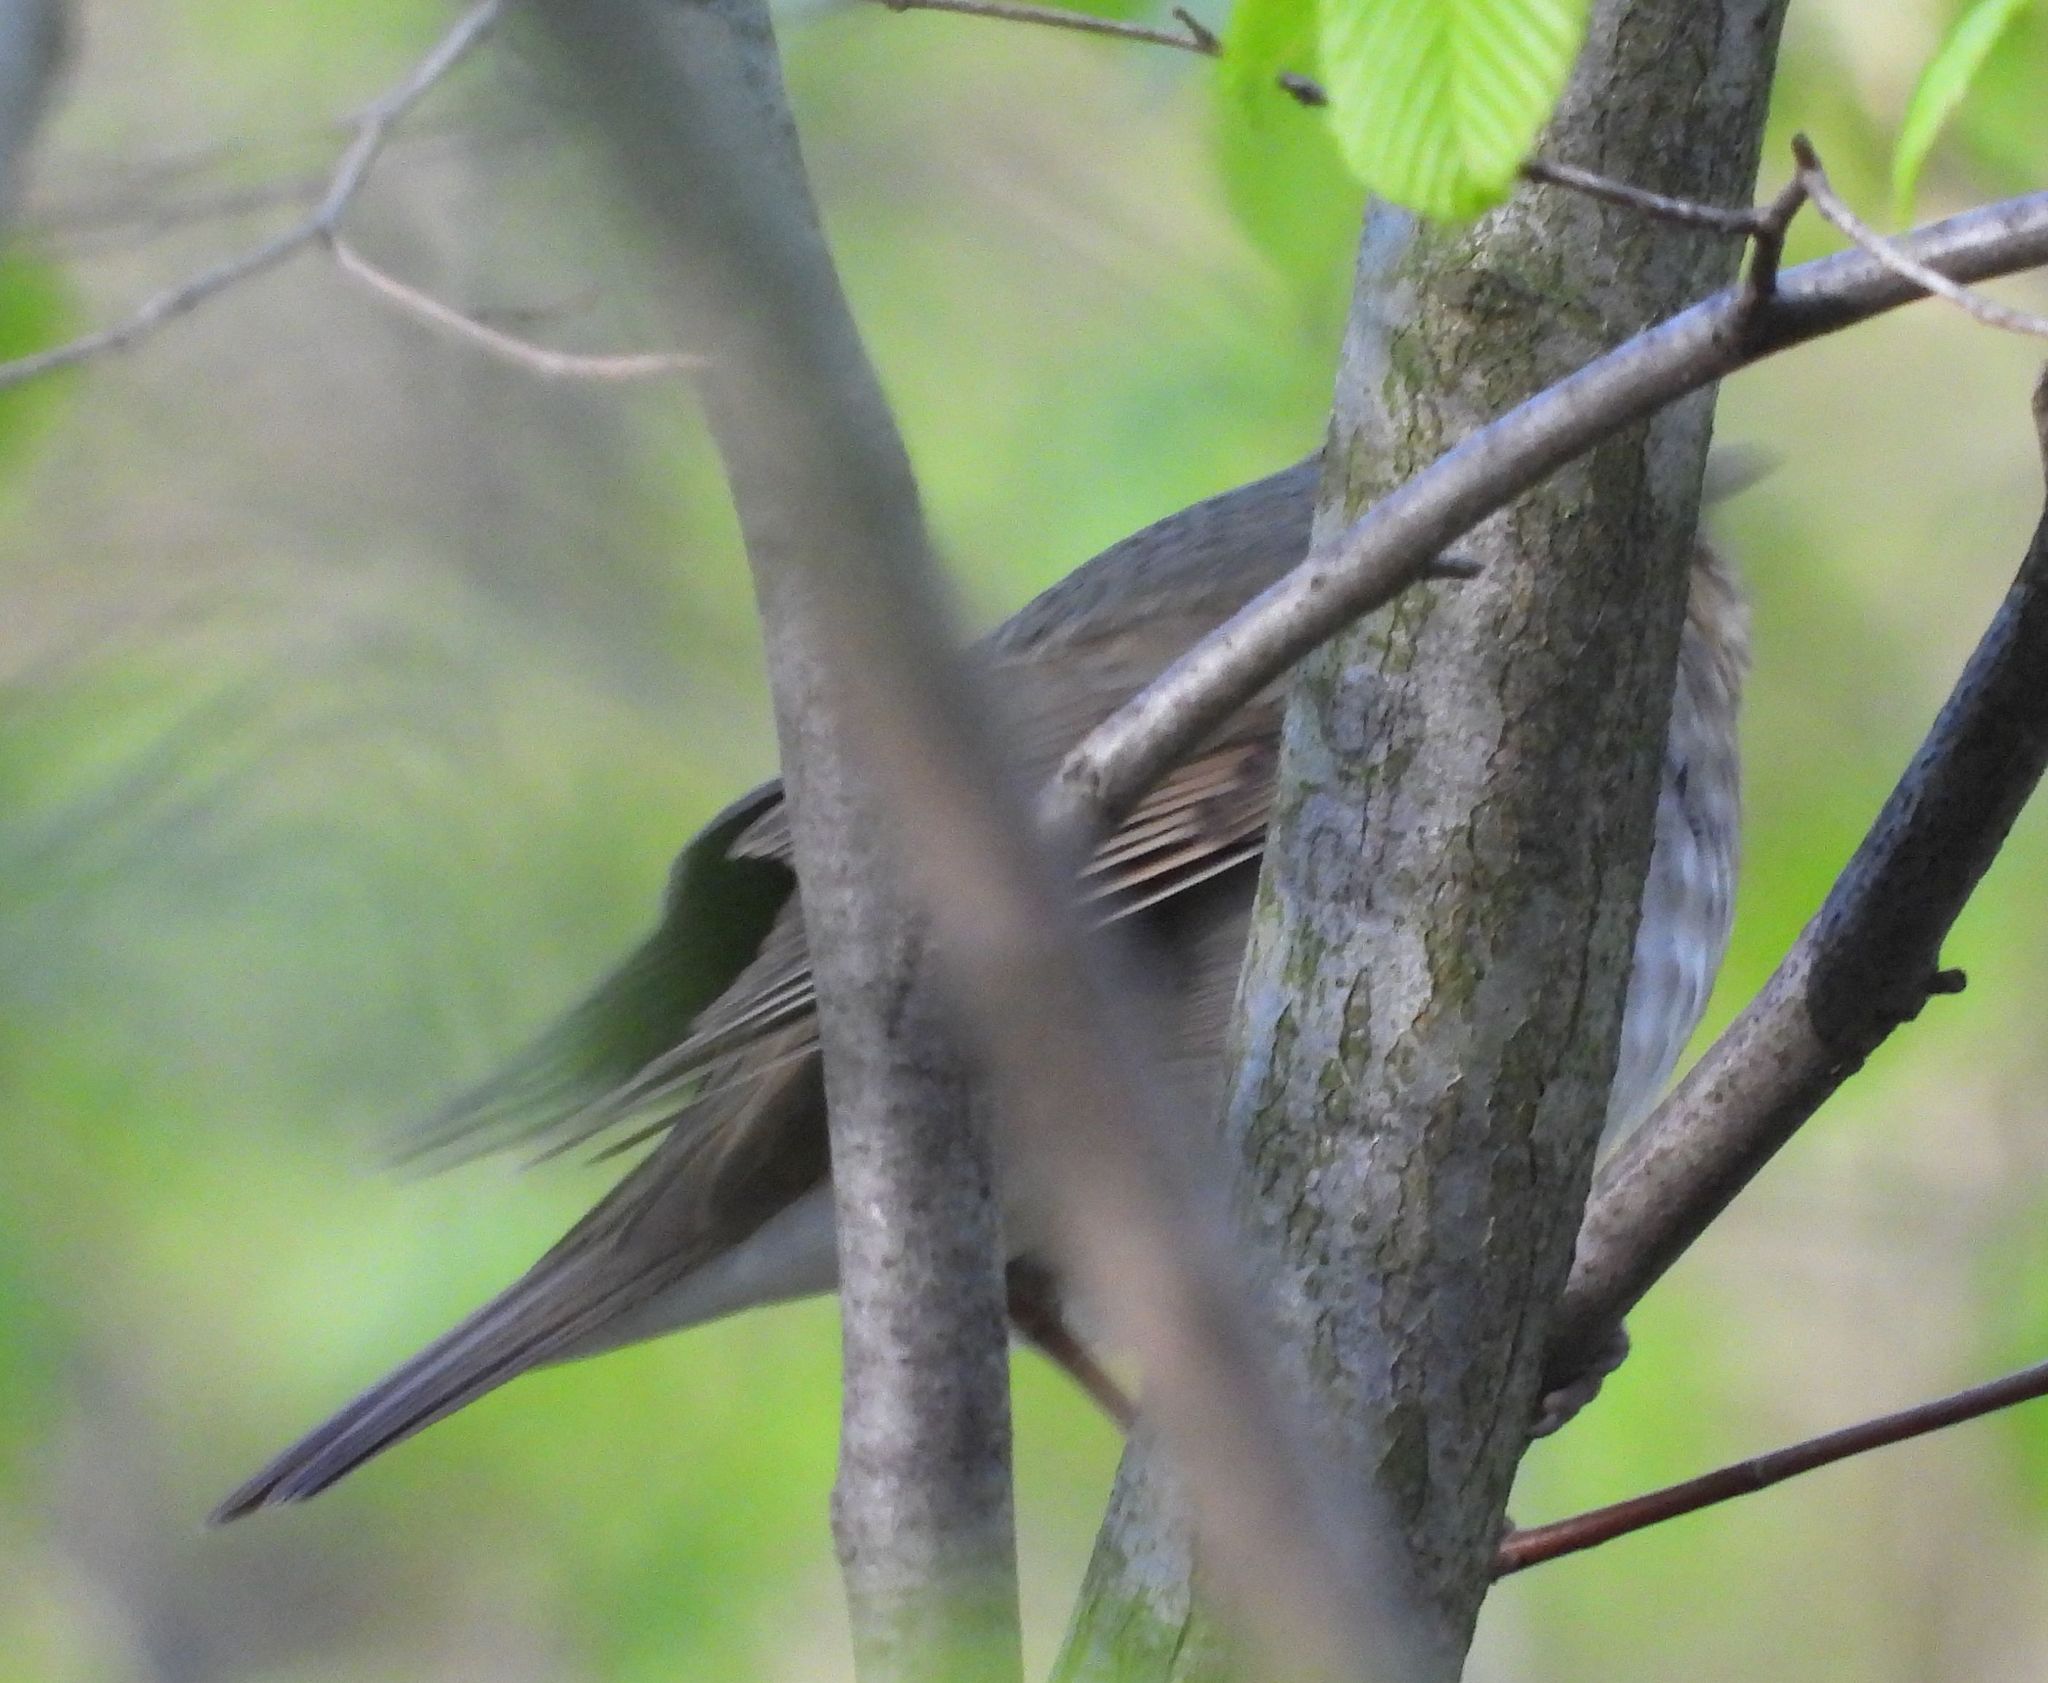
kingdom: Animalia
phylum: Chordata
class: Aves
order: Passeriformes
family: Turdidae
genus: Catharus
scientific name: Catharus ustulatus
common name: Swainson's thrush
